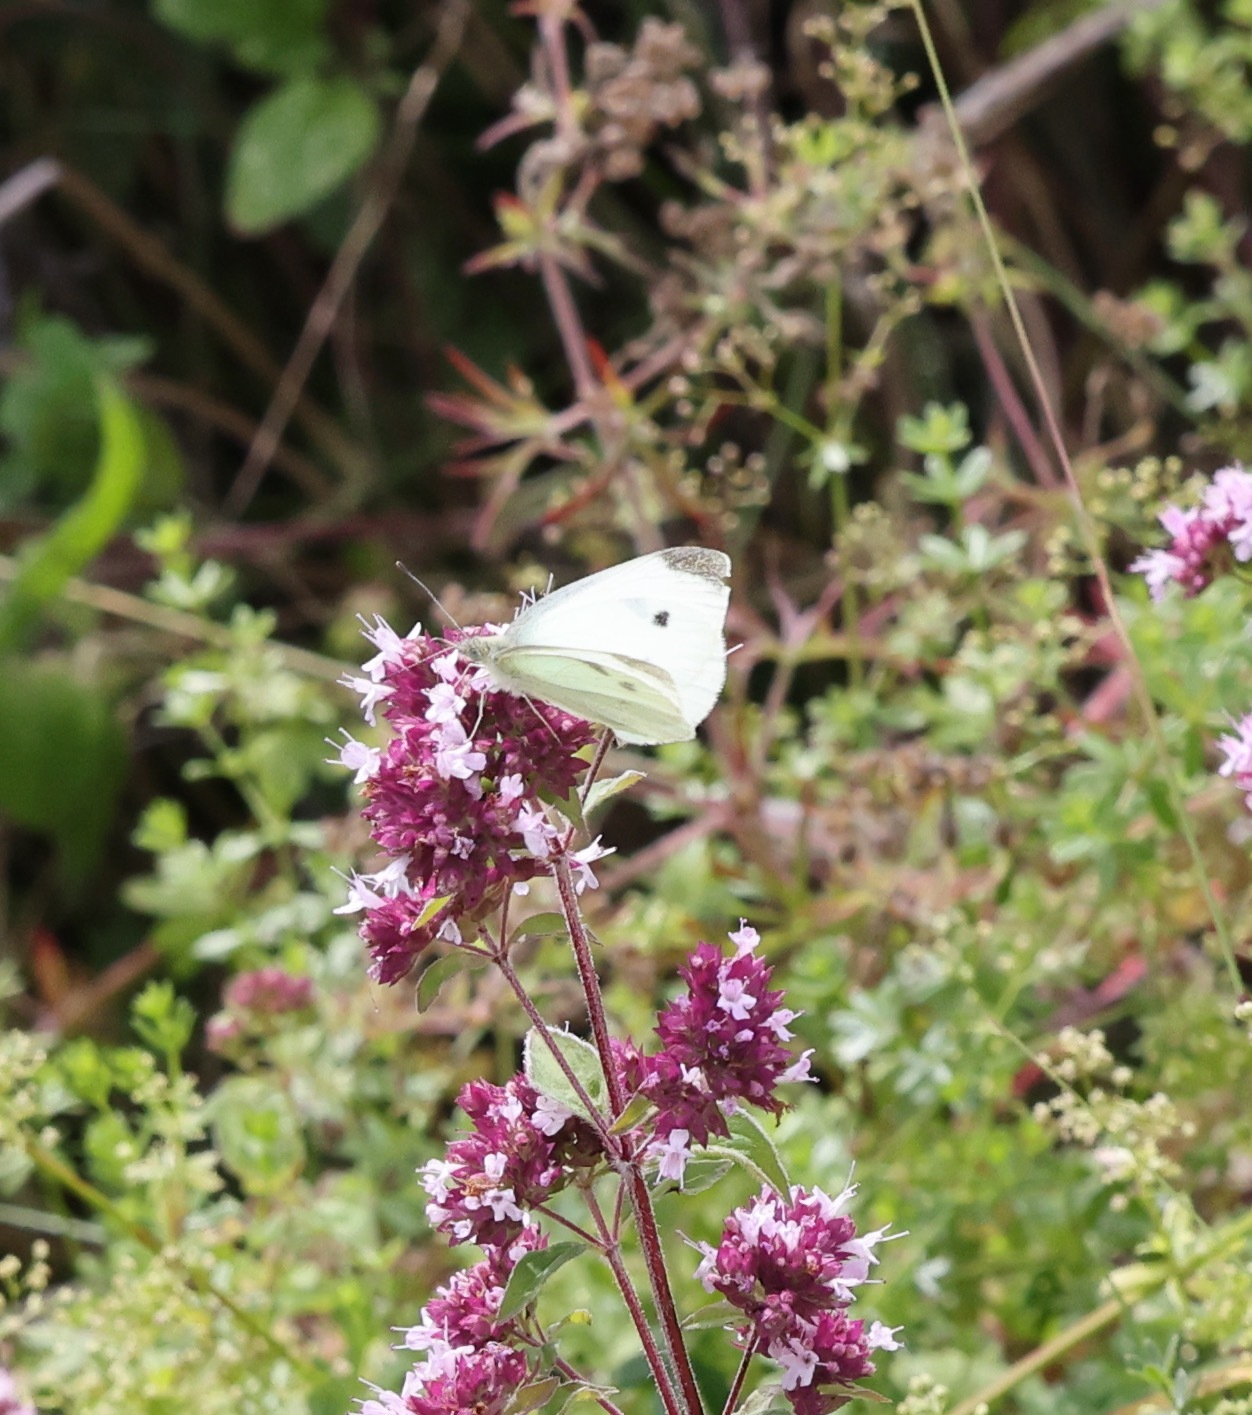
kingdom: Animalia
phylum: Arthropoda
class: Insecta
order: Lepidoptera
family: Pieridae
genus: Pieris
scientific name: Pieris rapae
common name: Small white
